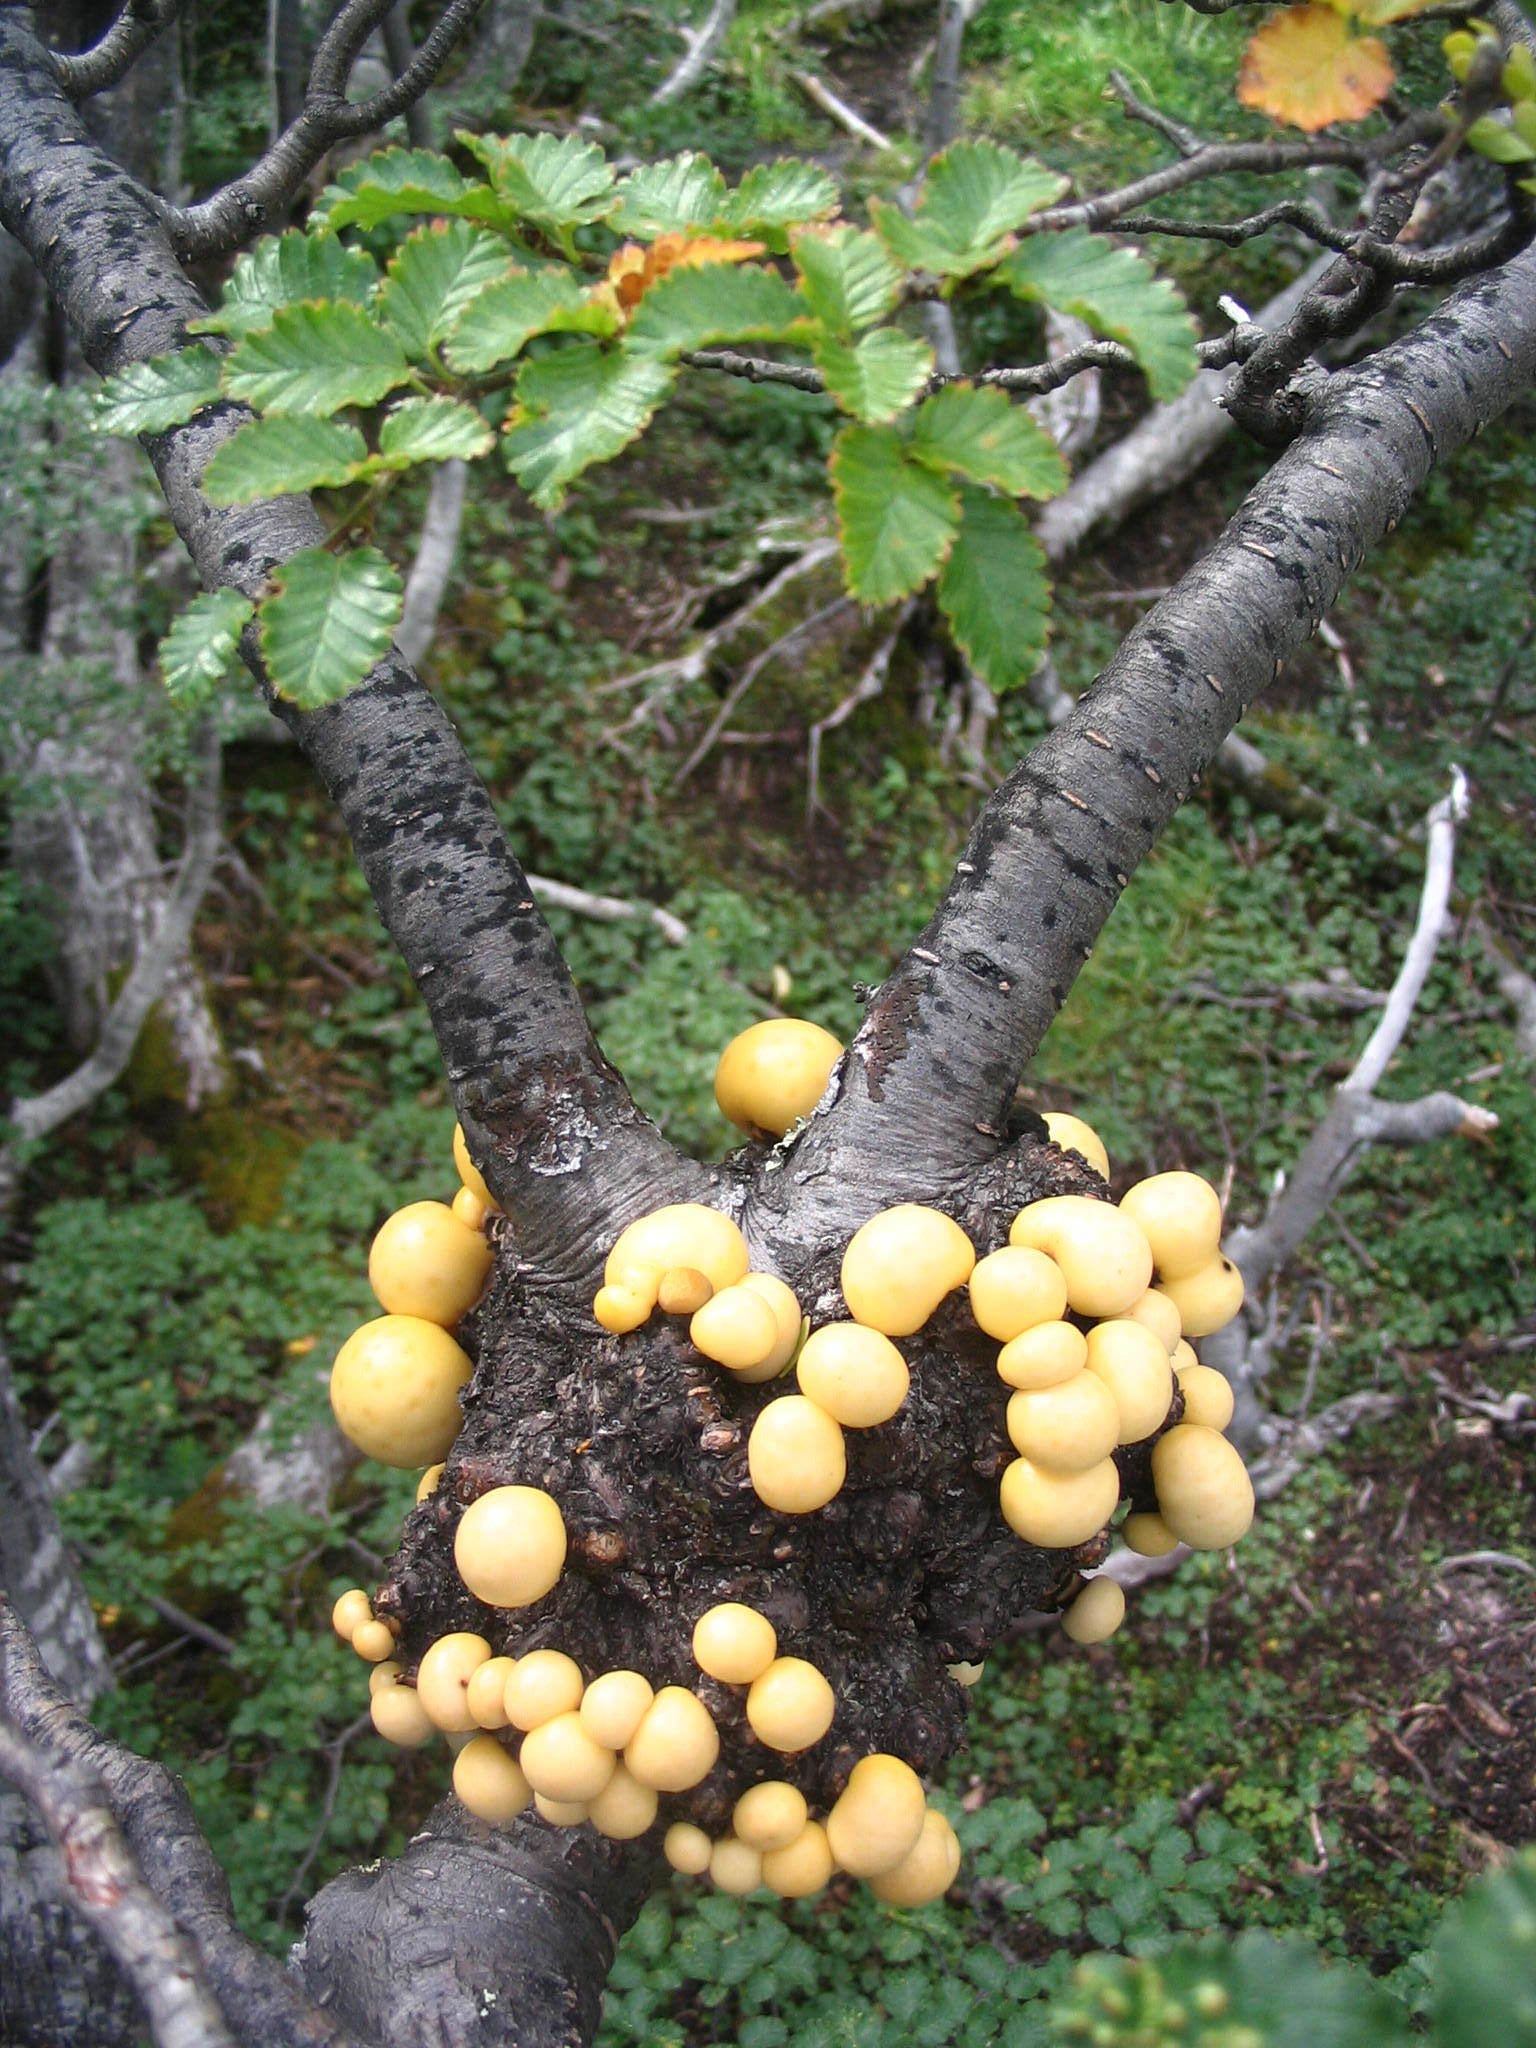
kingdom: Plantae
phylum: Tracheophyta
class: Magnoliopsida
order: Fagales
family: Nothofagaceae
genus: Nothofagus
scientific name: Nothofagus pumilio
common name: Lenga beech
